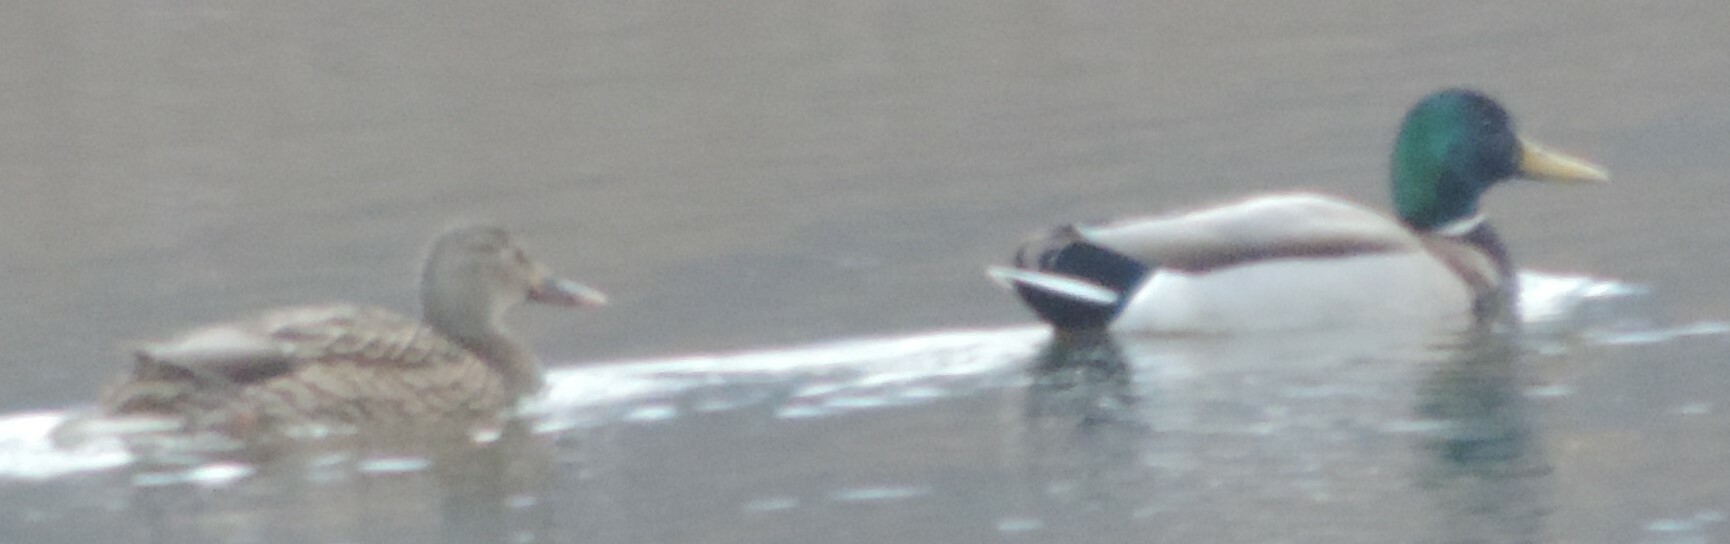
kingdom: Animalia
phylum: Chordata
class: Aves
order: Anseriformes
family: Anatidae
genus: Anas
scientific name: Anas platyrhynchos
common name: Mallard
